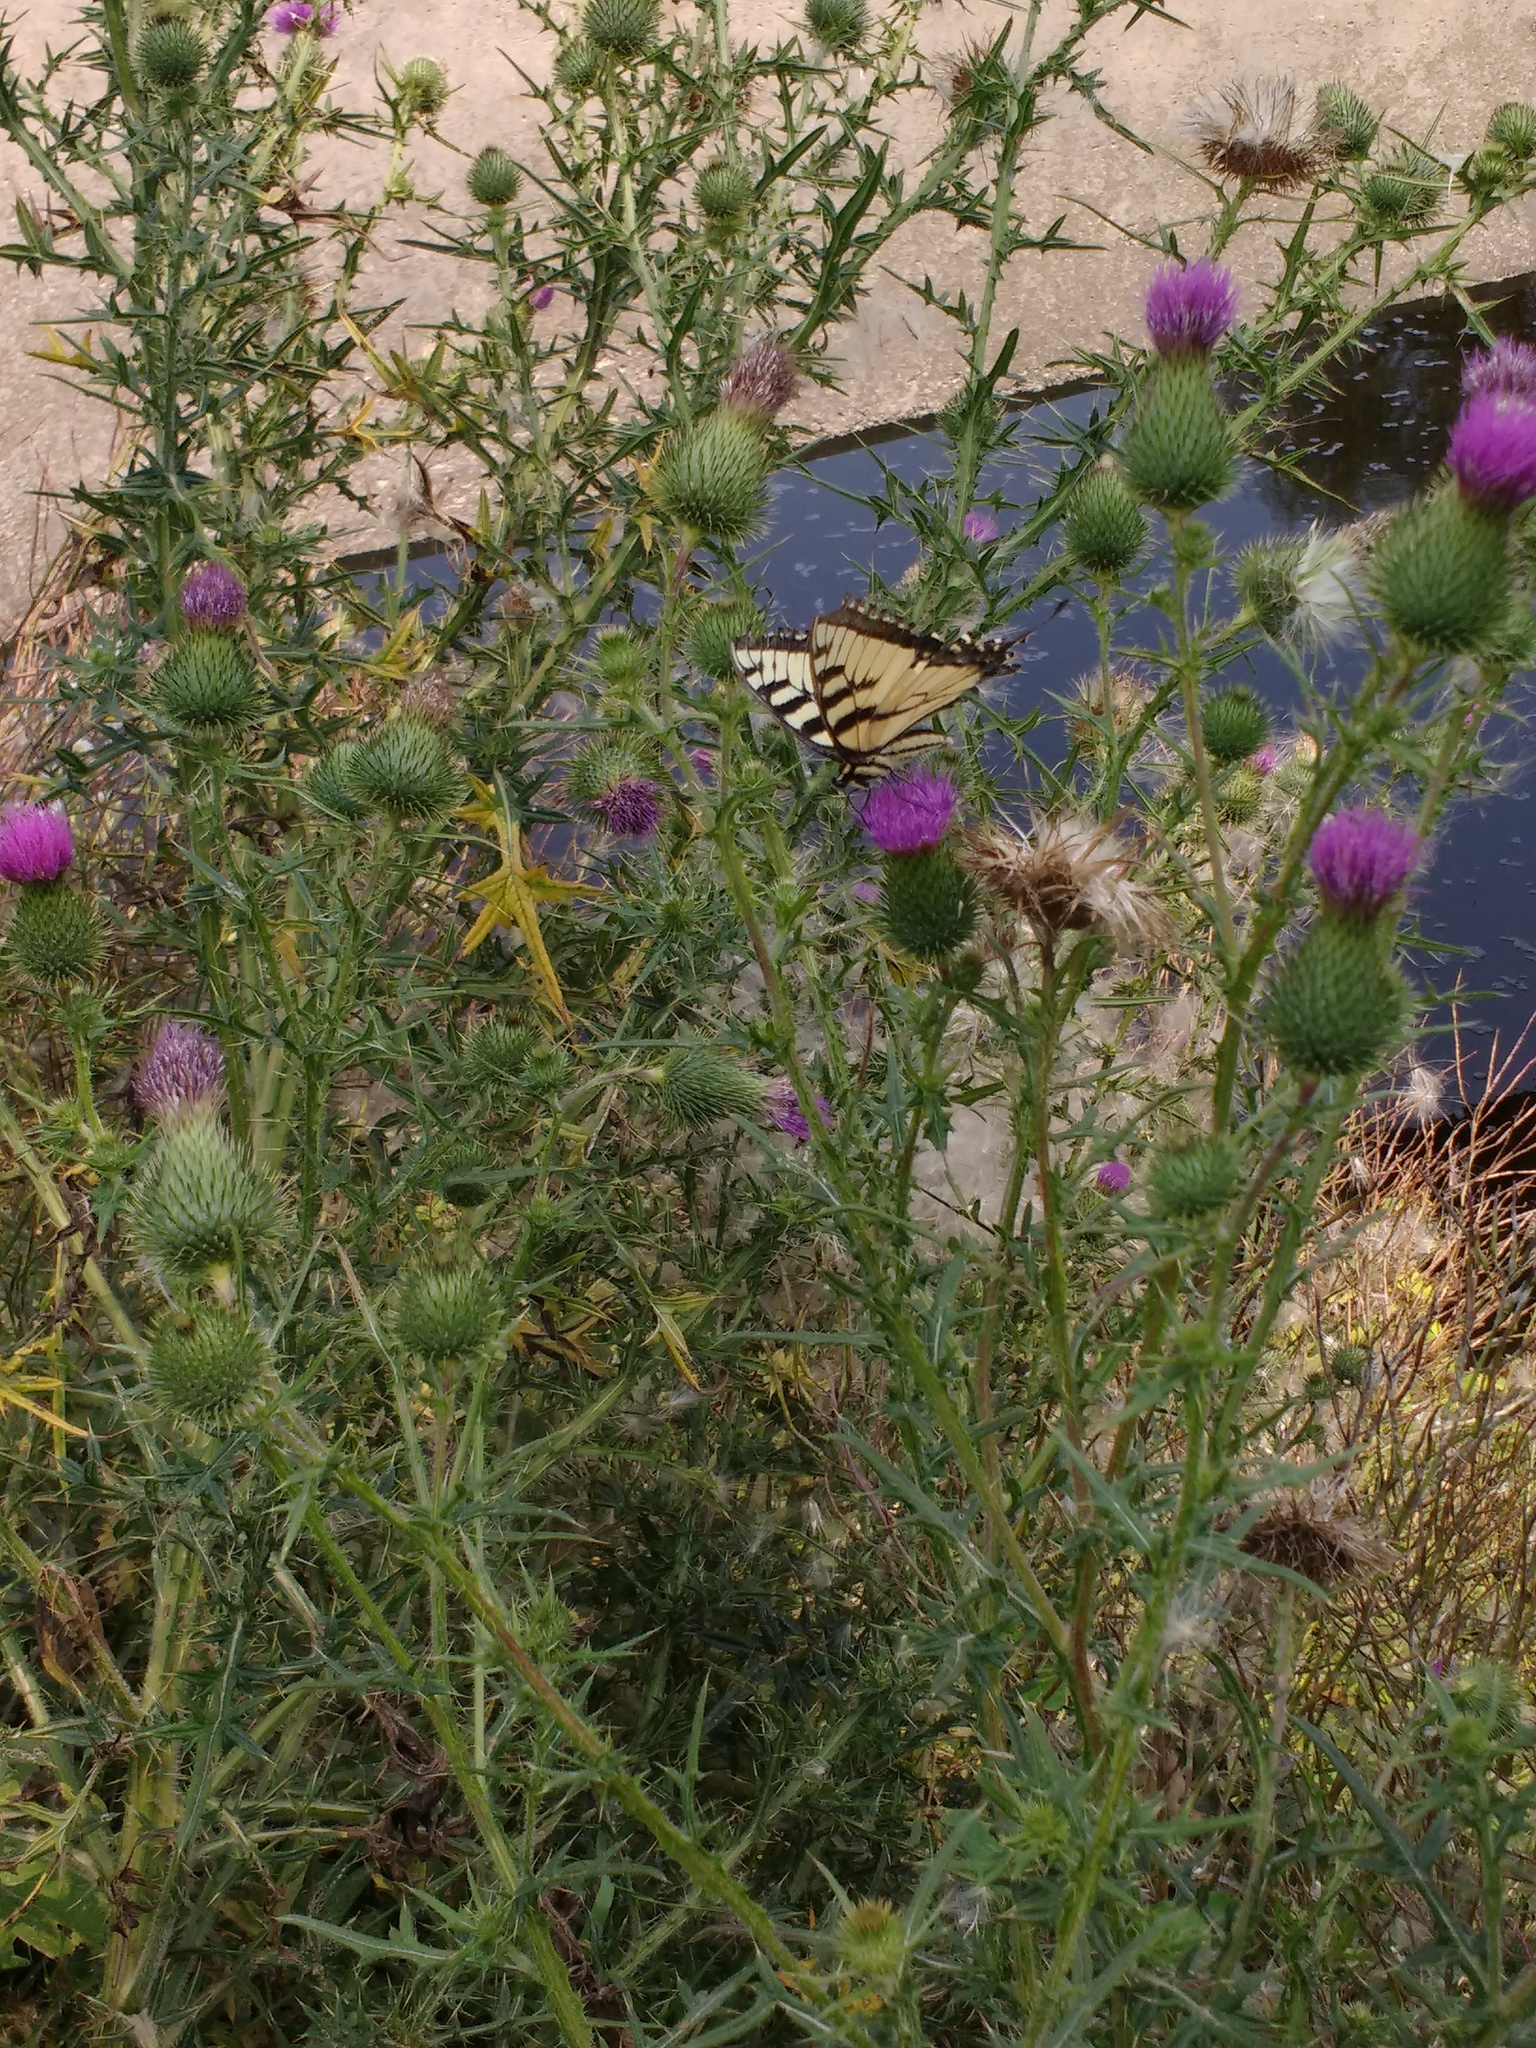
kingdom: Animalia
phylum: Arthropoda
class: Insecta
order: Lepidoptera
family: Papilionidae
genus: Papilio
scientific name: Papilio
